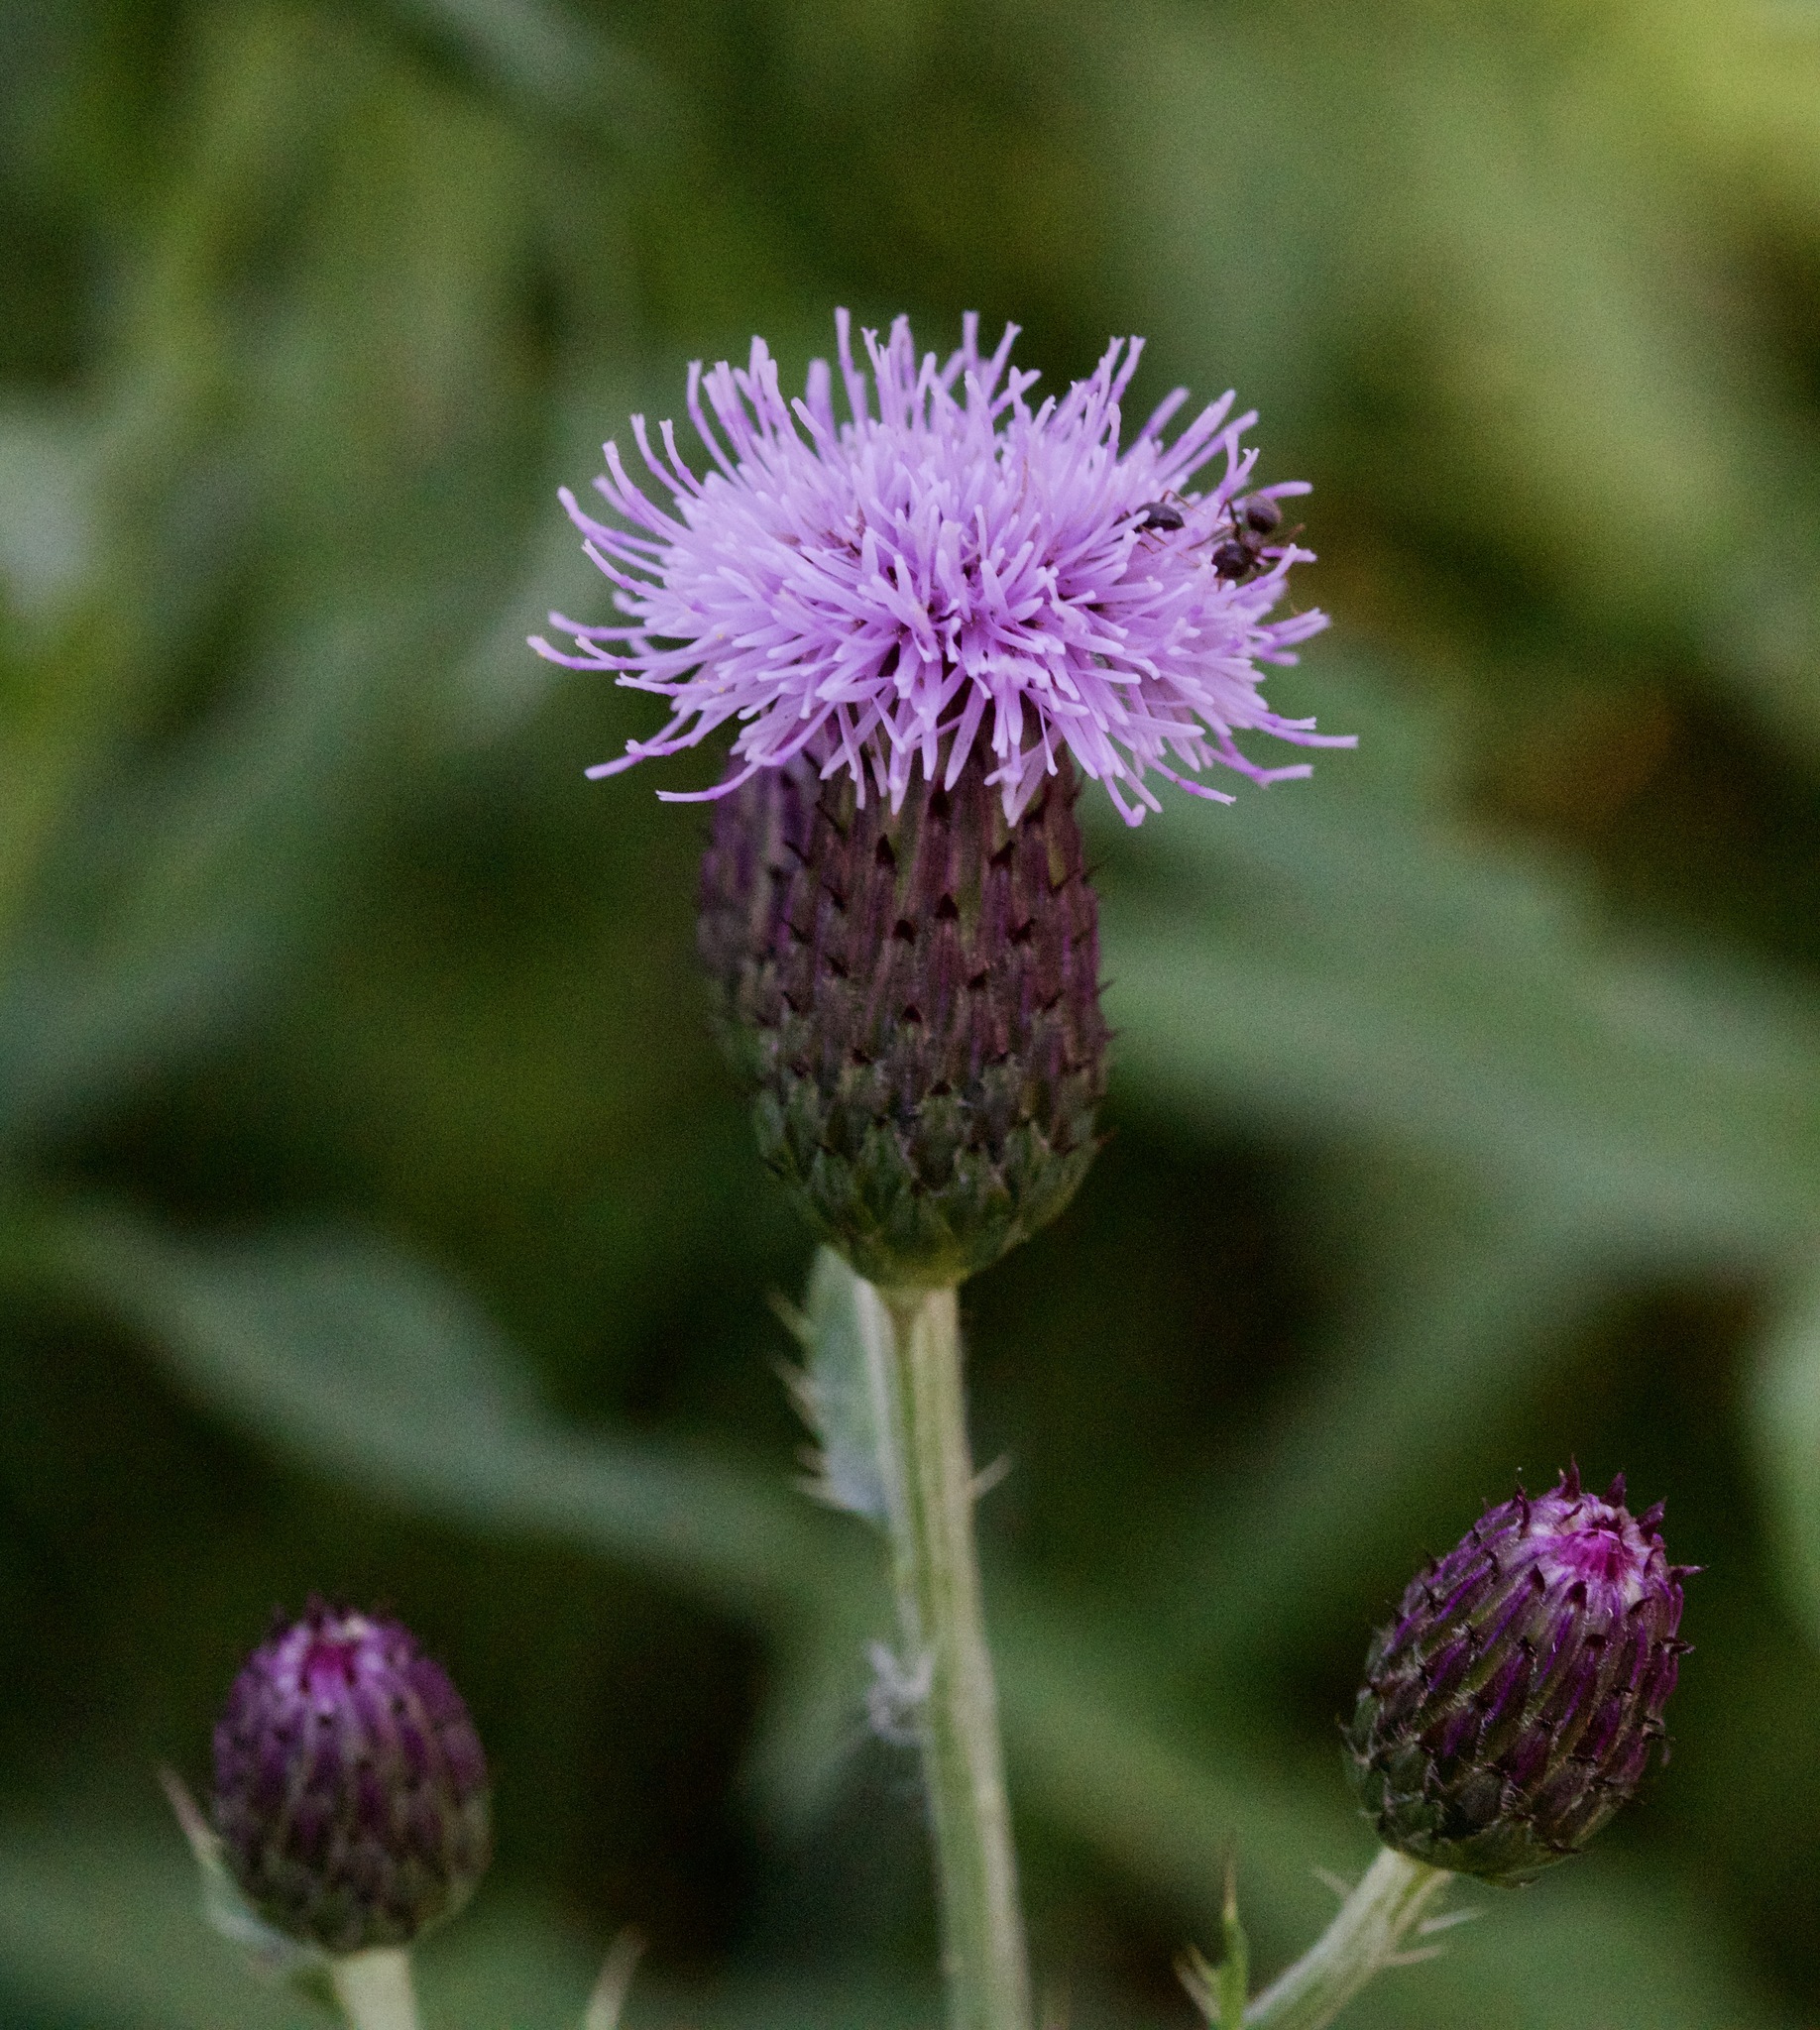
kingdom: Plantae
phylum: Tracheophyta
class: Magnoliopsida
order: Asterales
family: Asteraceae
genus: Cirsium
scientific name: Cirsium arvense
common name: Creeping thistle
